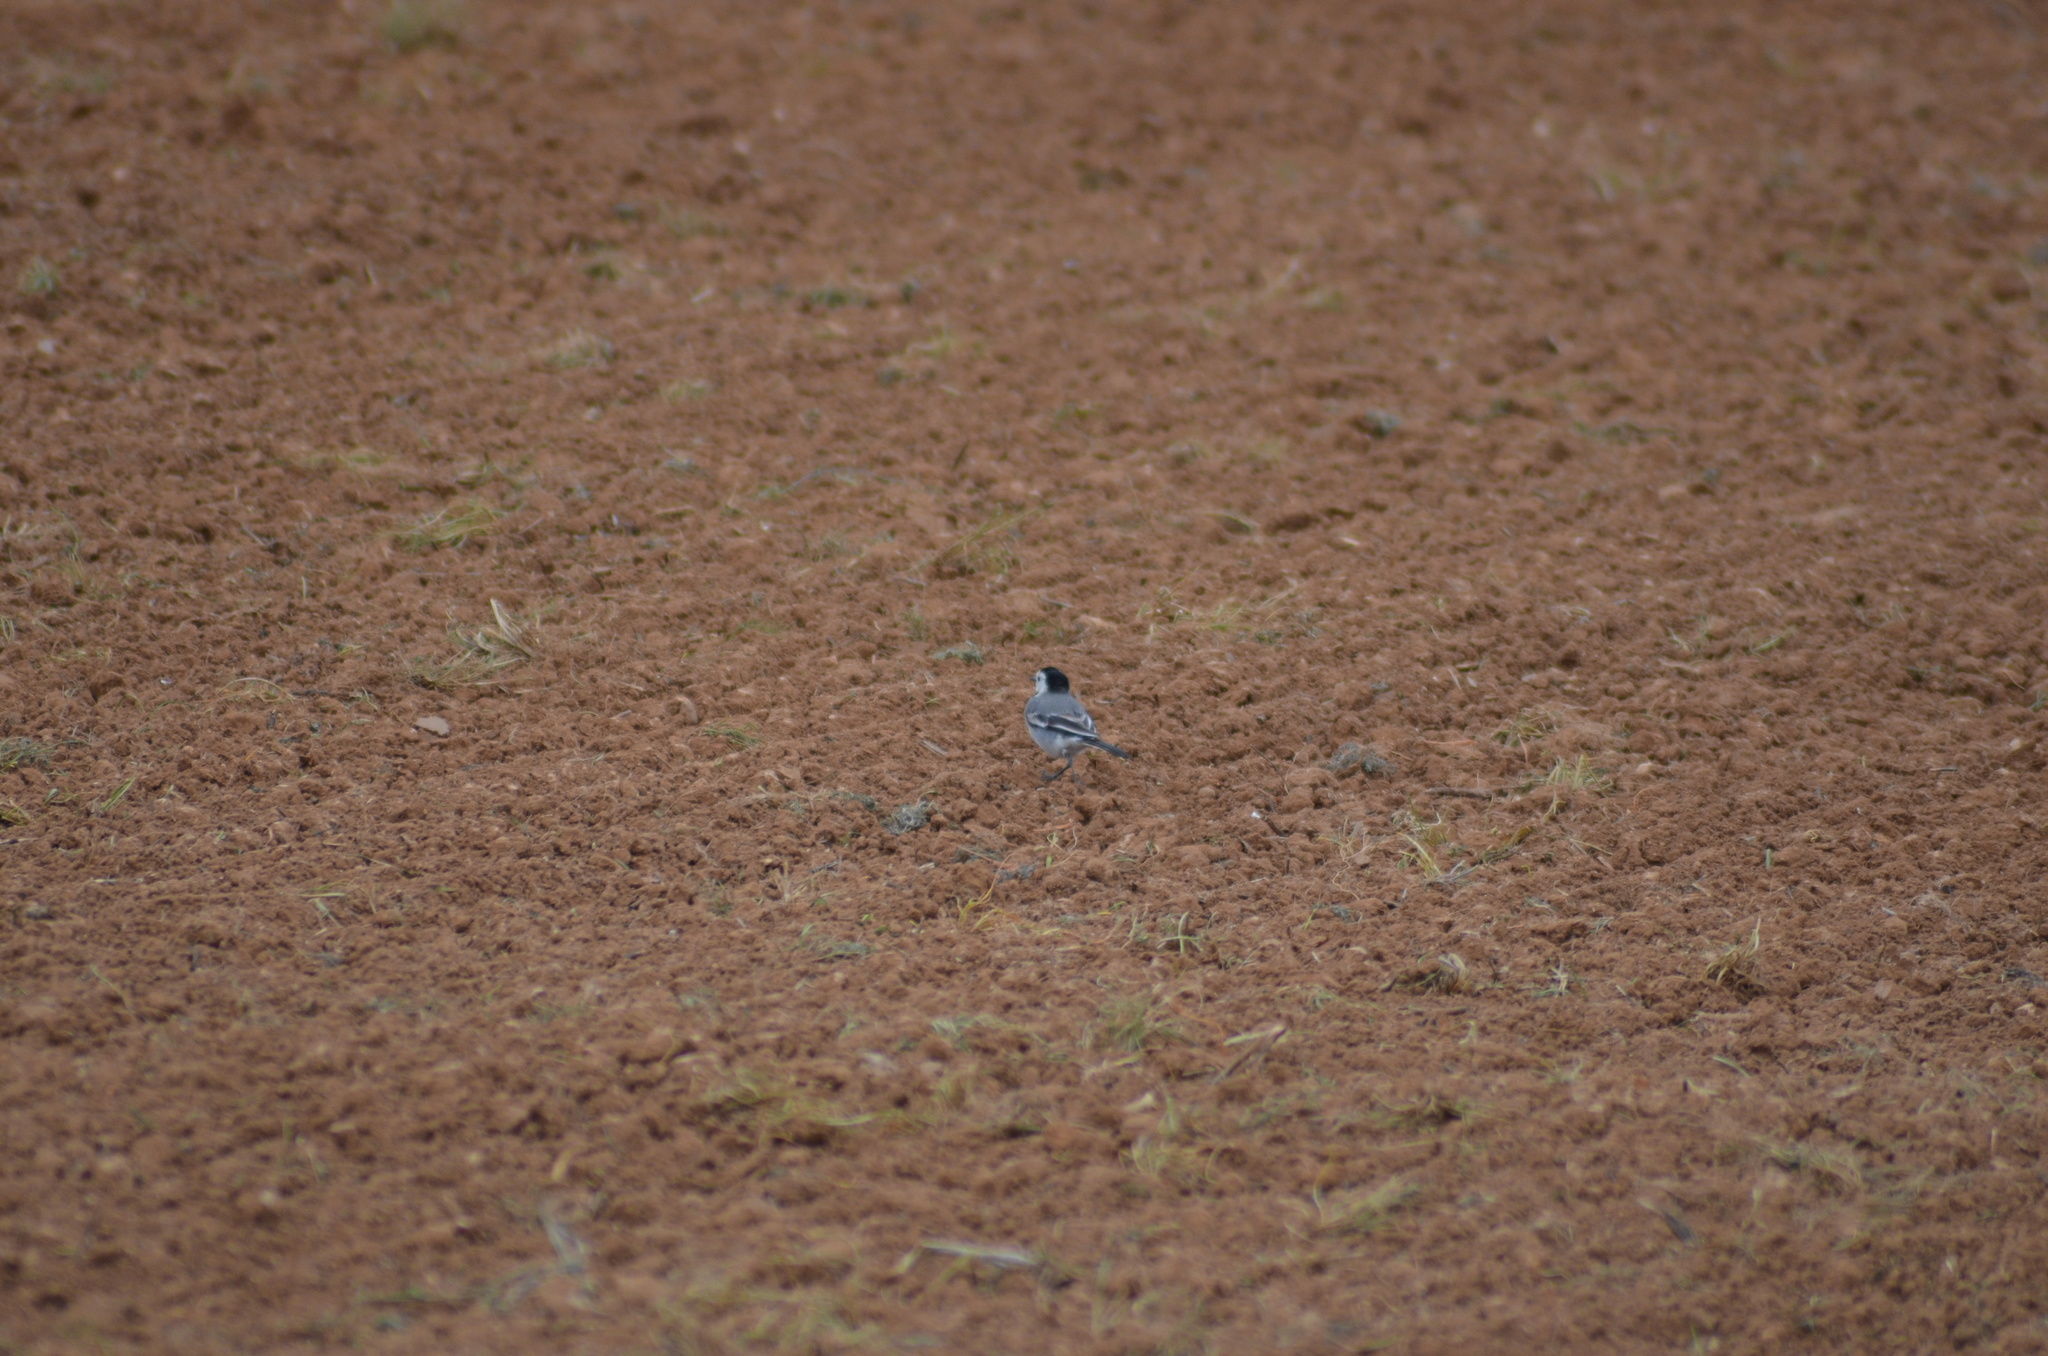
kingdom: Animalia
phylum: Chordata
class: Aves
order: Passeriformes
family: Motacillidae
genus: Motacilla
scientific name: Motacilla alba
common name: White wagtail
